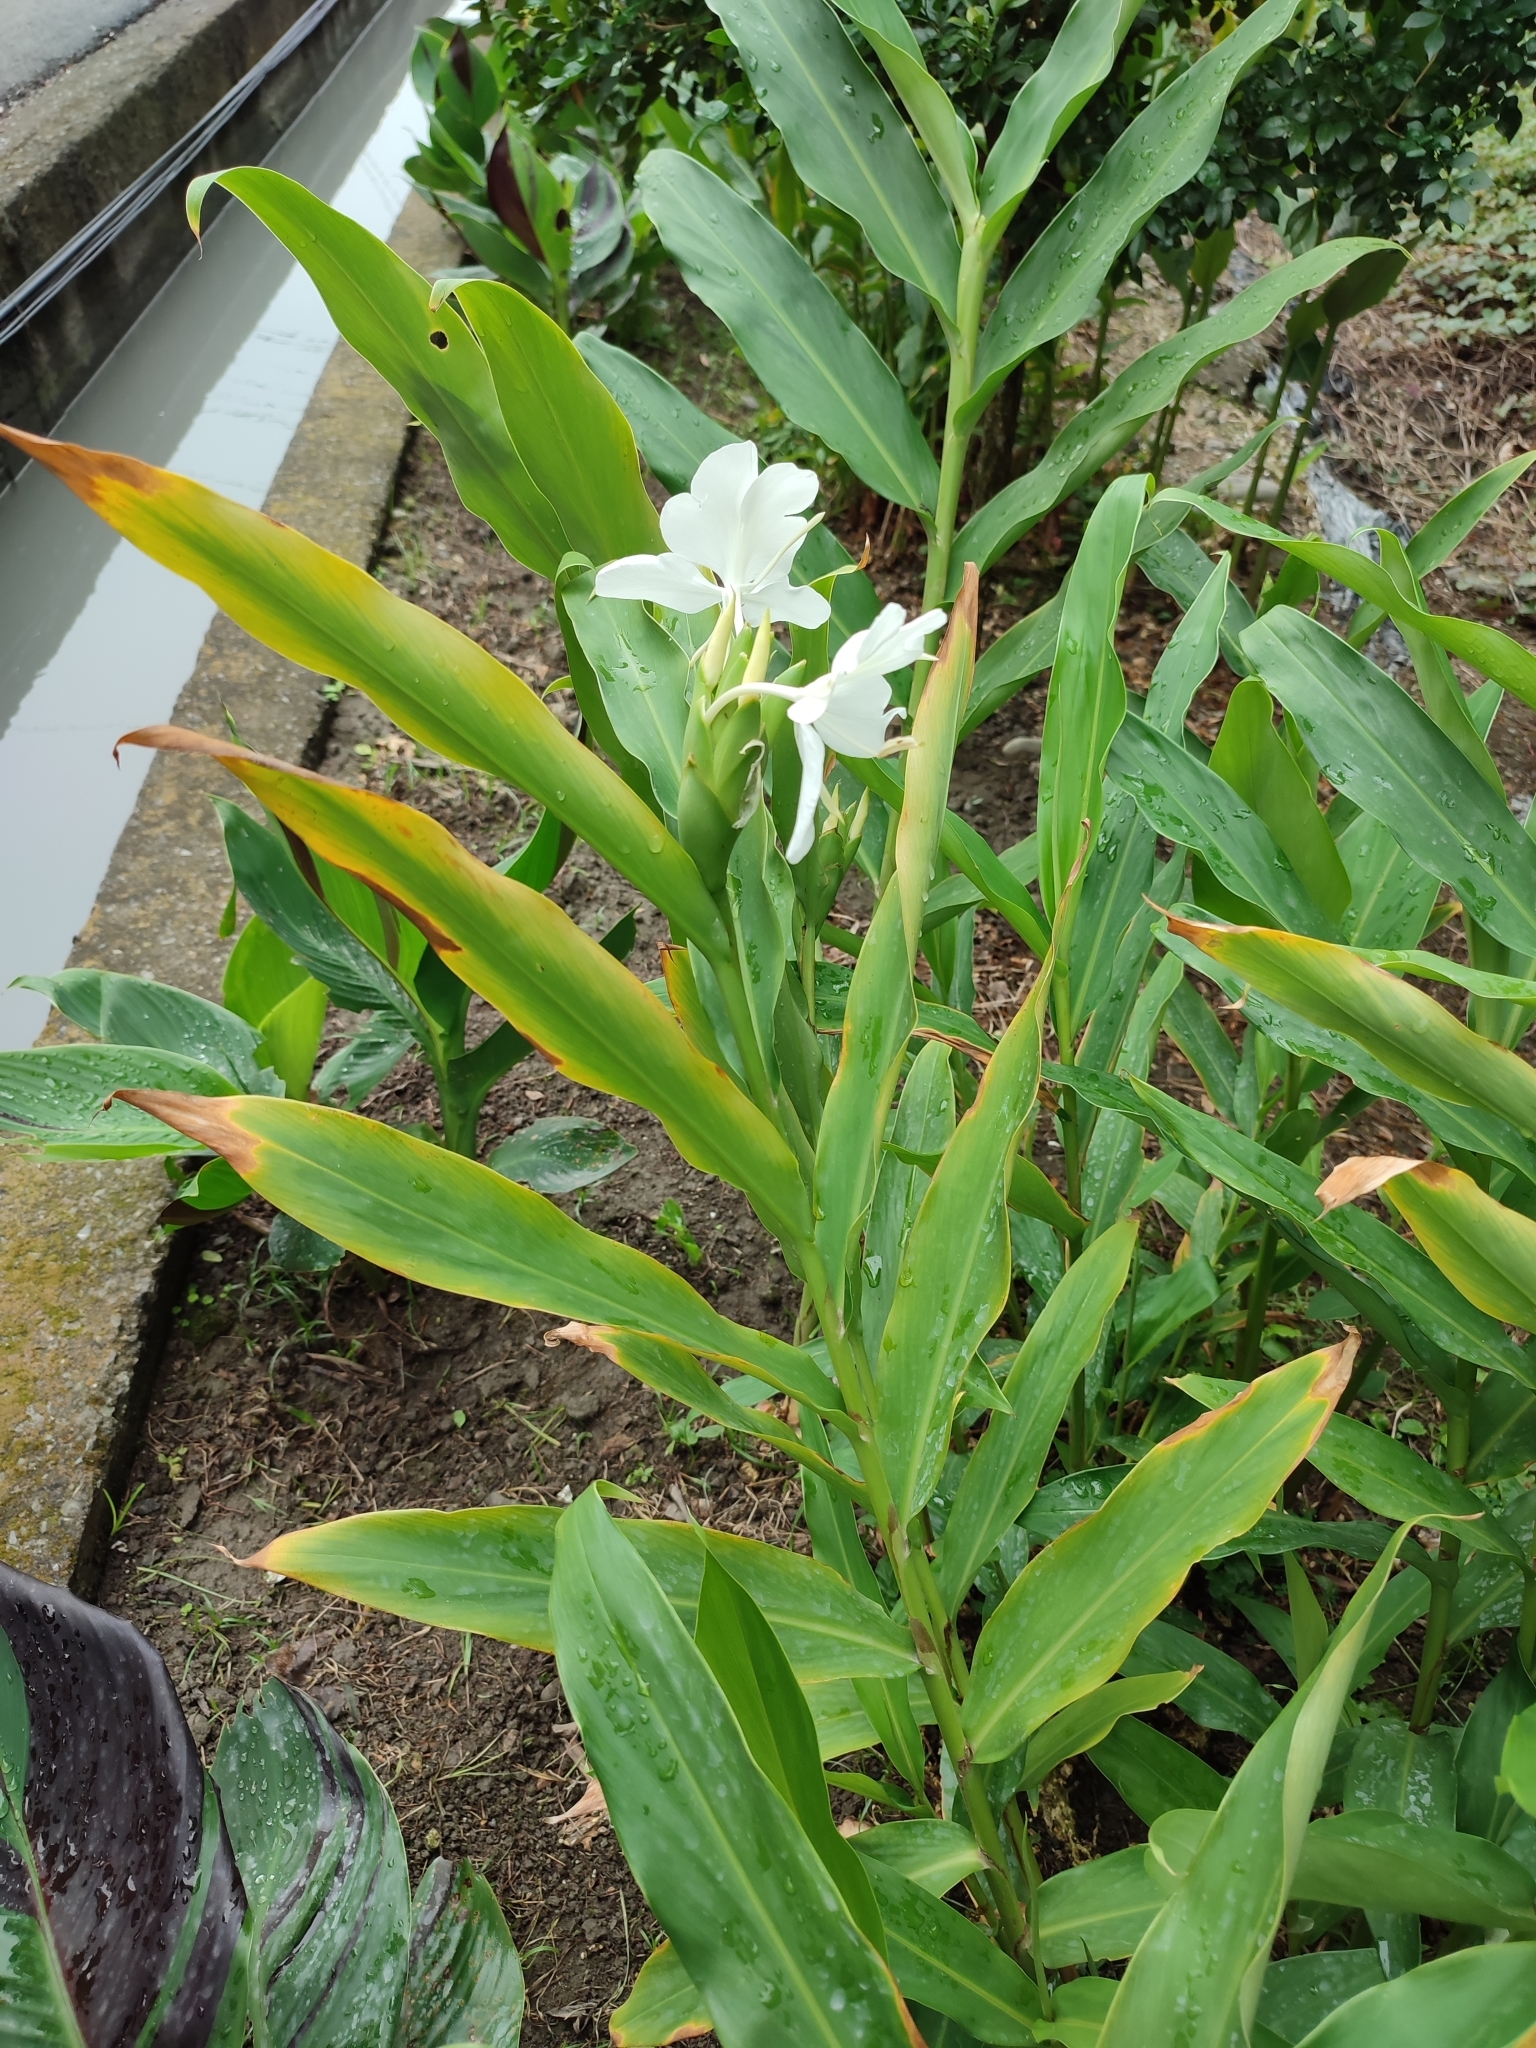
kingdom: Plantae
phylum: Tracheophyta
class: Liliopsida
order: Zingiberales
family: Zingiberaceae
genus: Hedychium
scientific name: Hedychium coronarium
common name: White garland-lily
